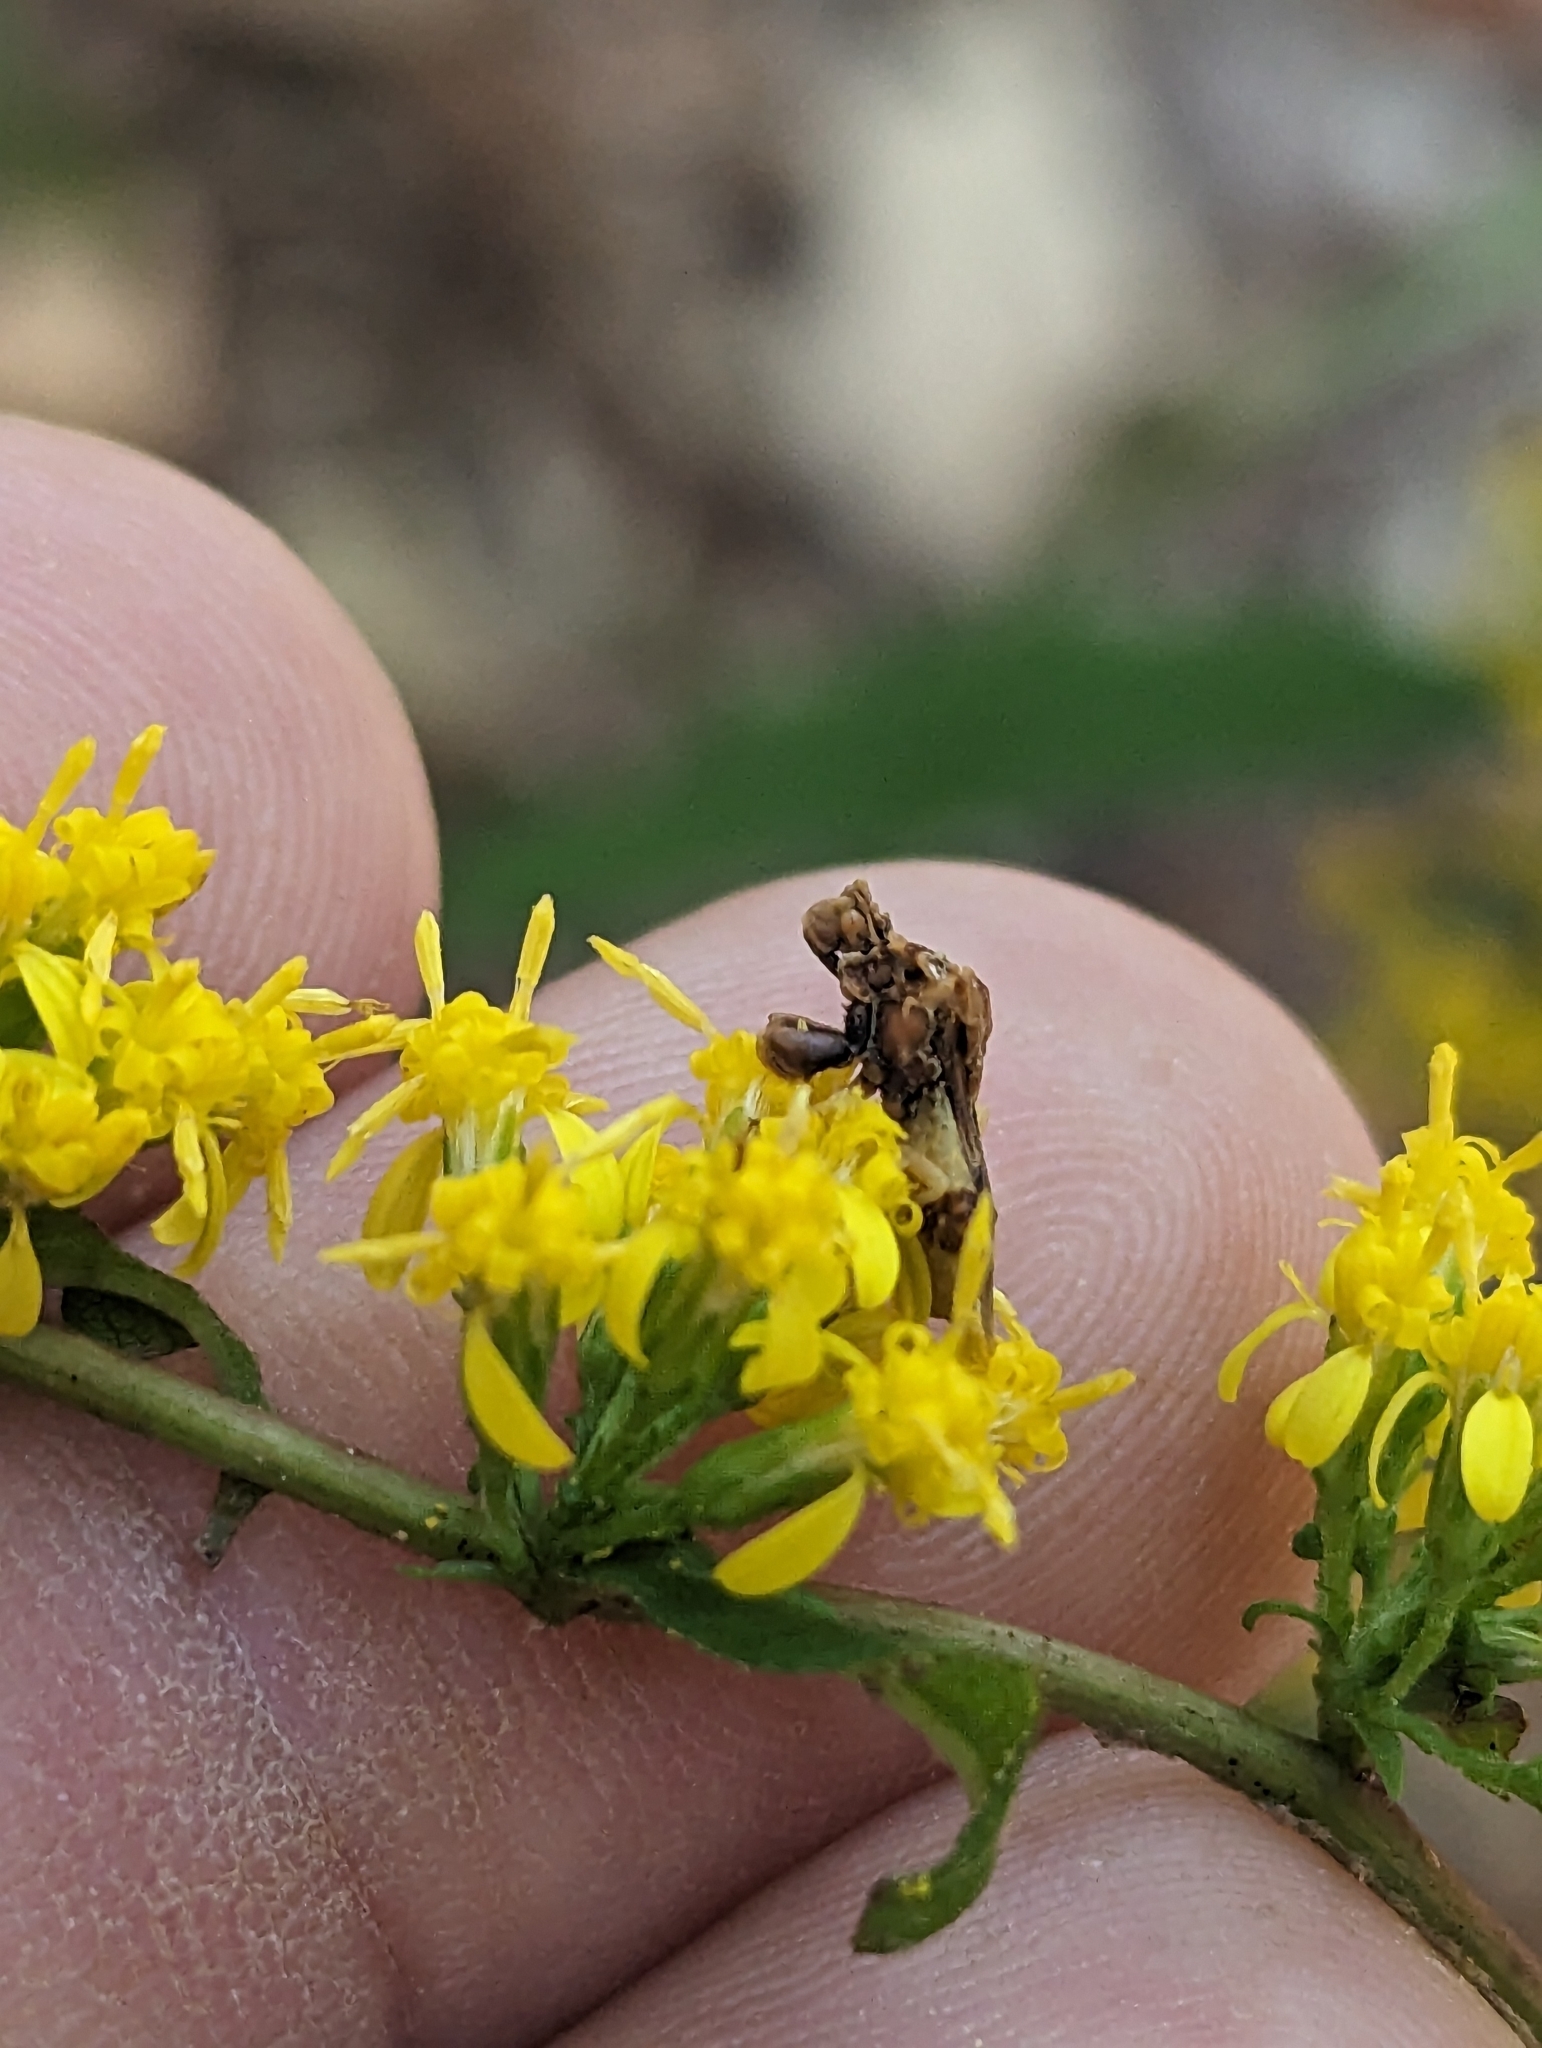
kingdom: Animalia
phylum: Arthropoda
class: Insecta
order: Hemiptera
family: Reduviidae
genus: Phymata
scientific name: Phymata fasciata
